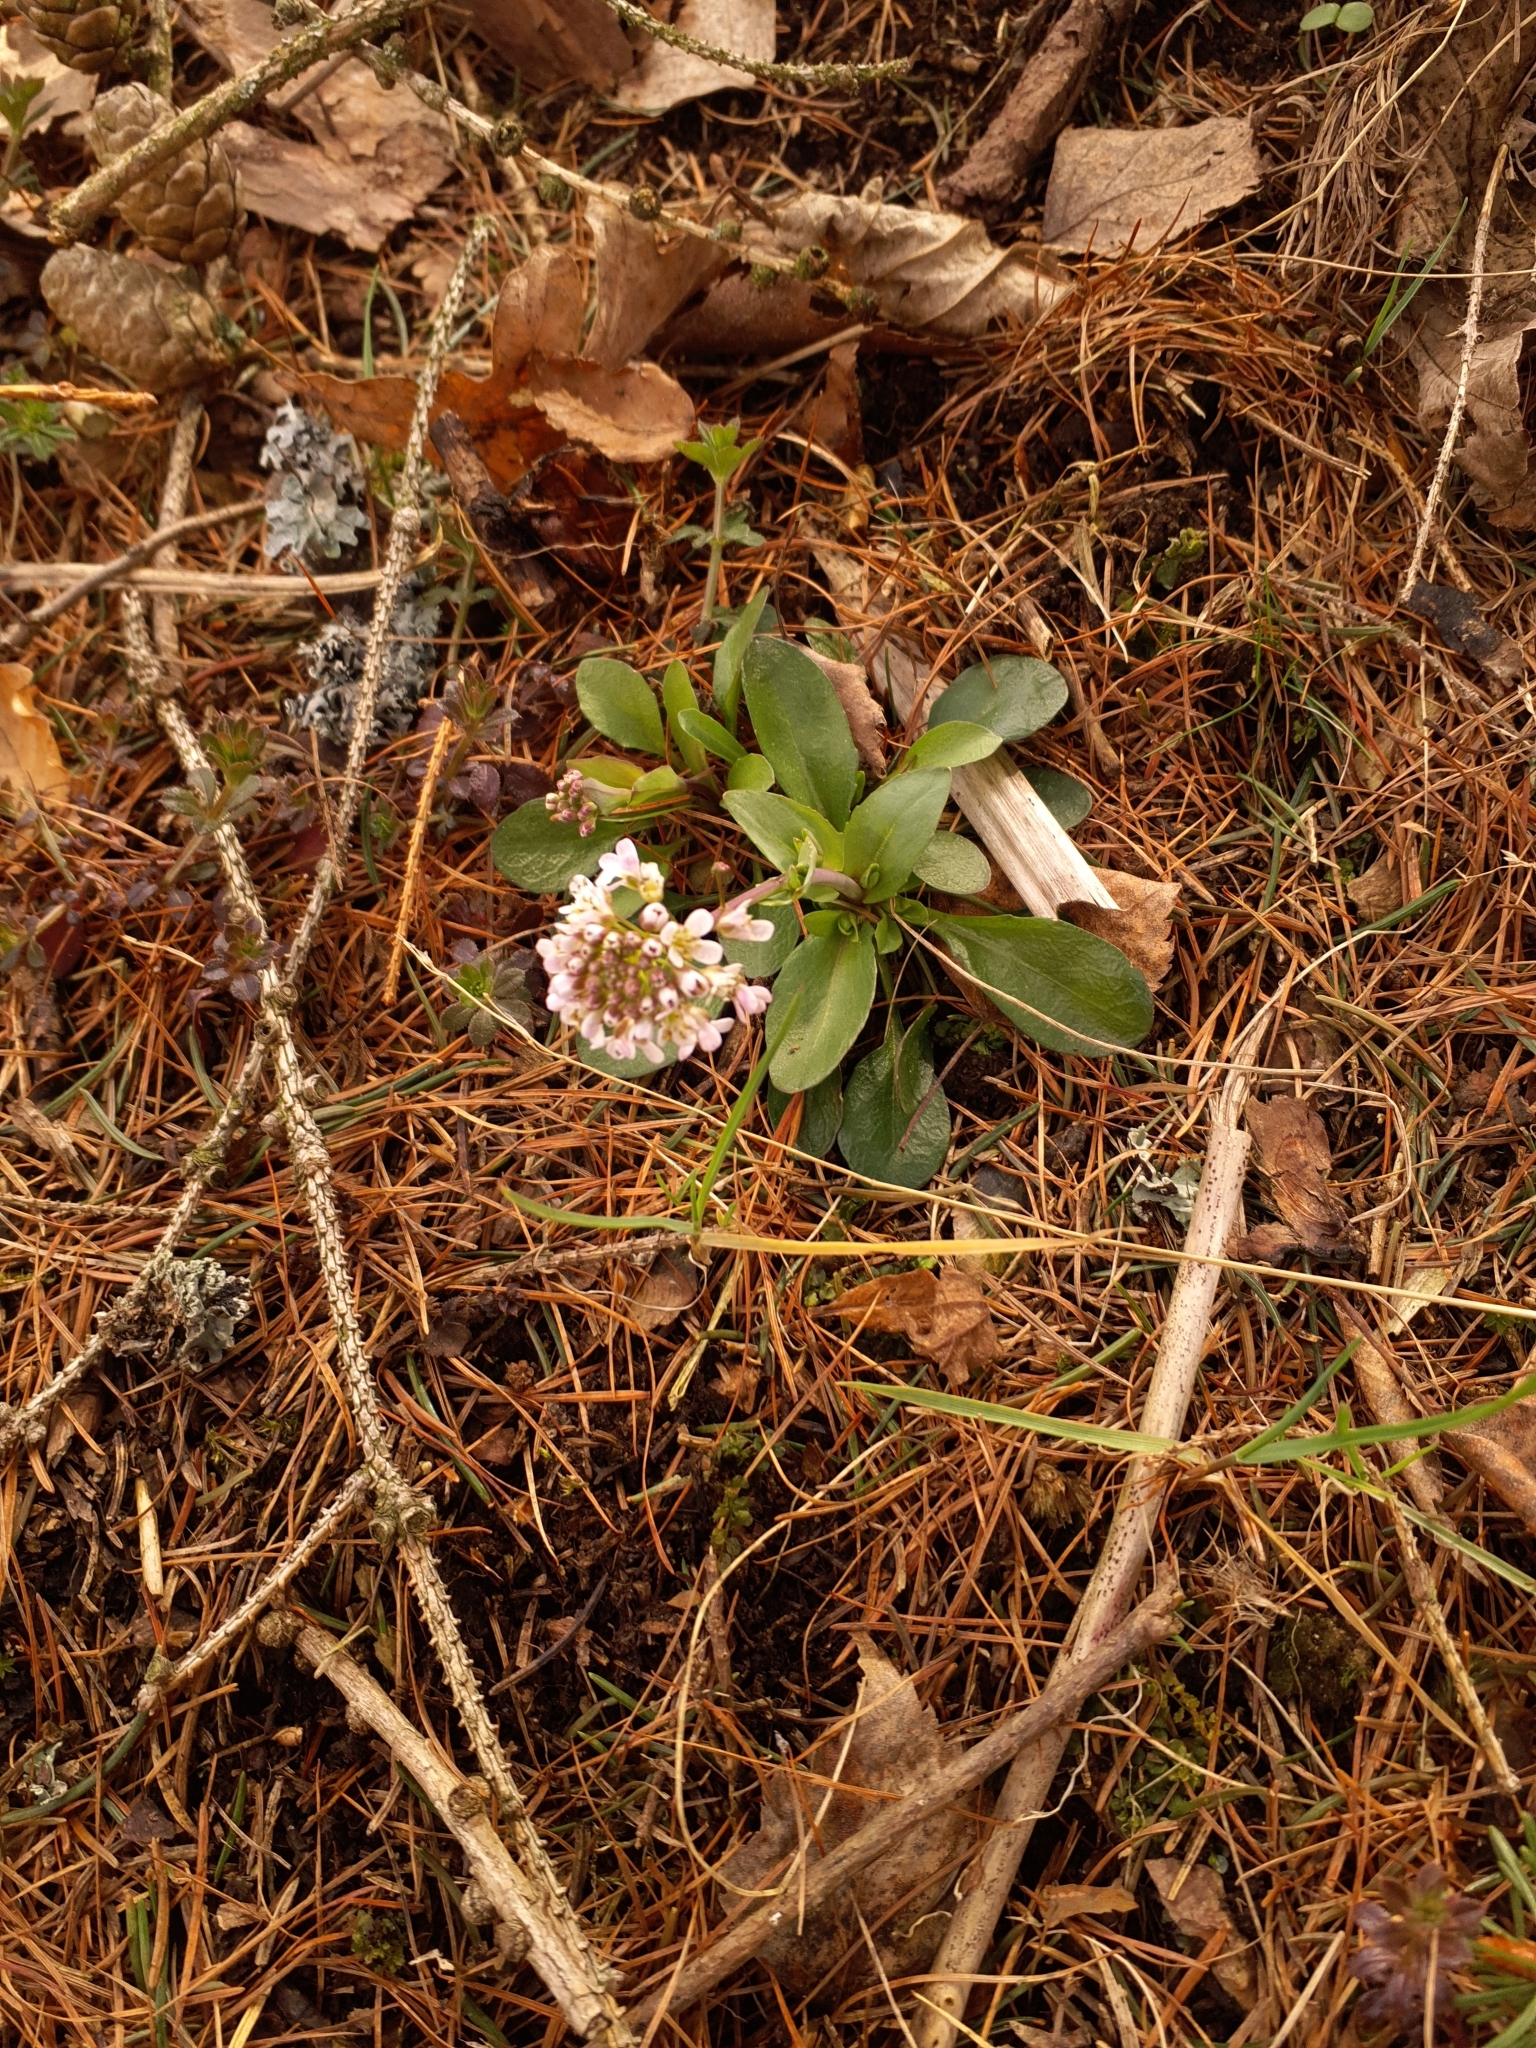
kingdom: Plantae
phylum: Tracheophyta
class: Magnoliopsida
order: Brassicales
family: Brassicaceae
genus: Noccaea
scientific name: Noccaea caerulescens
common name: Alpine pennycress
